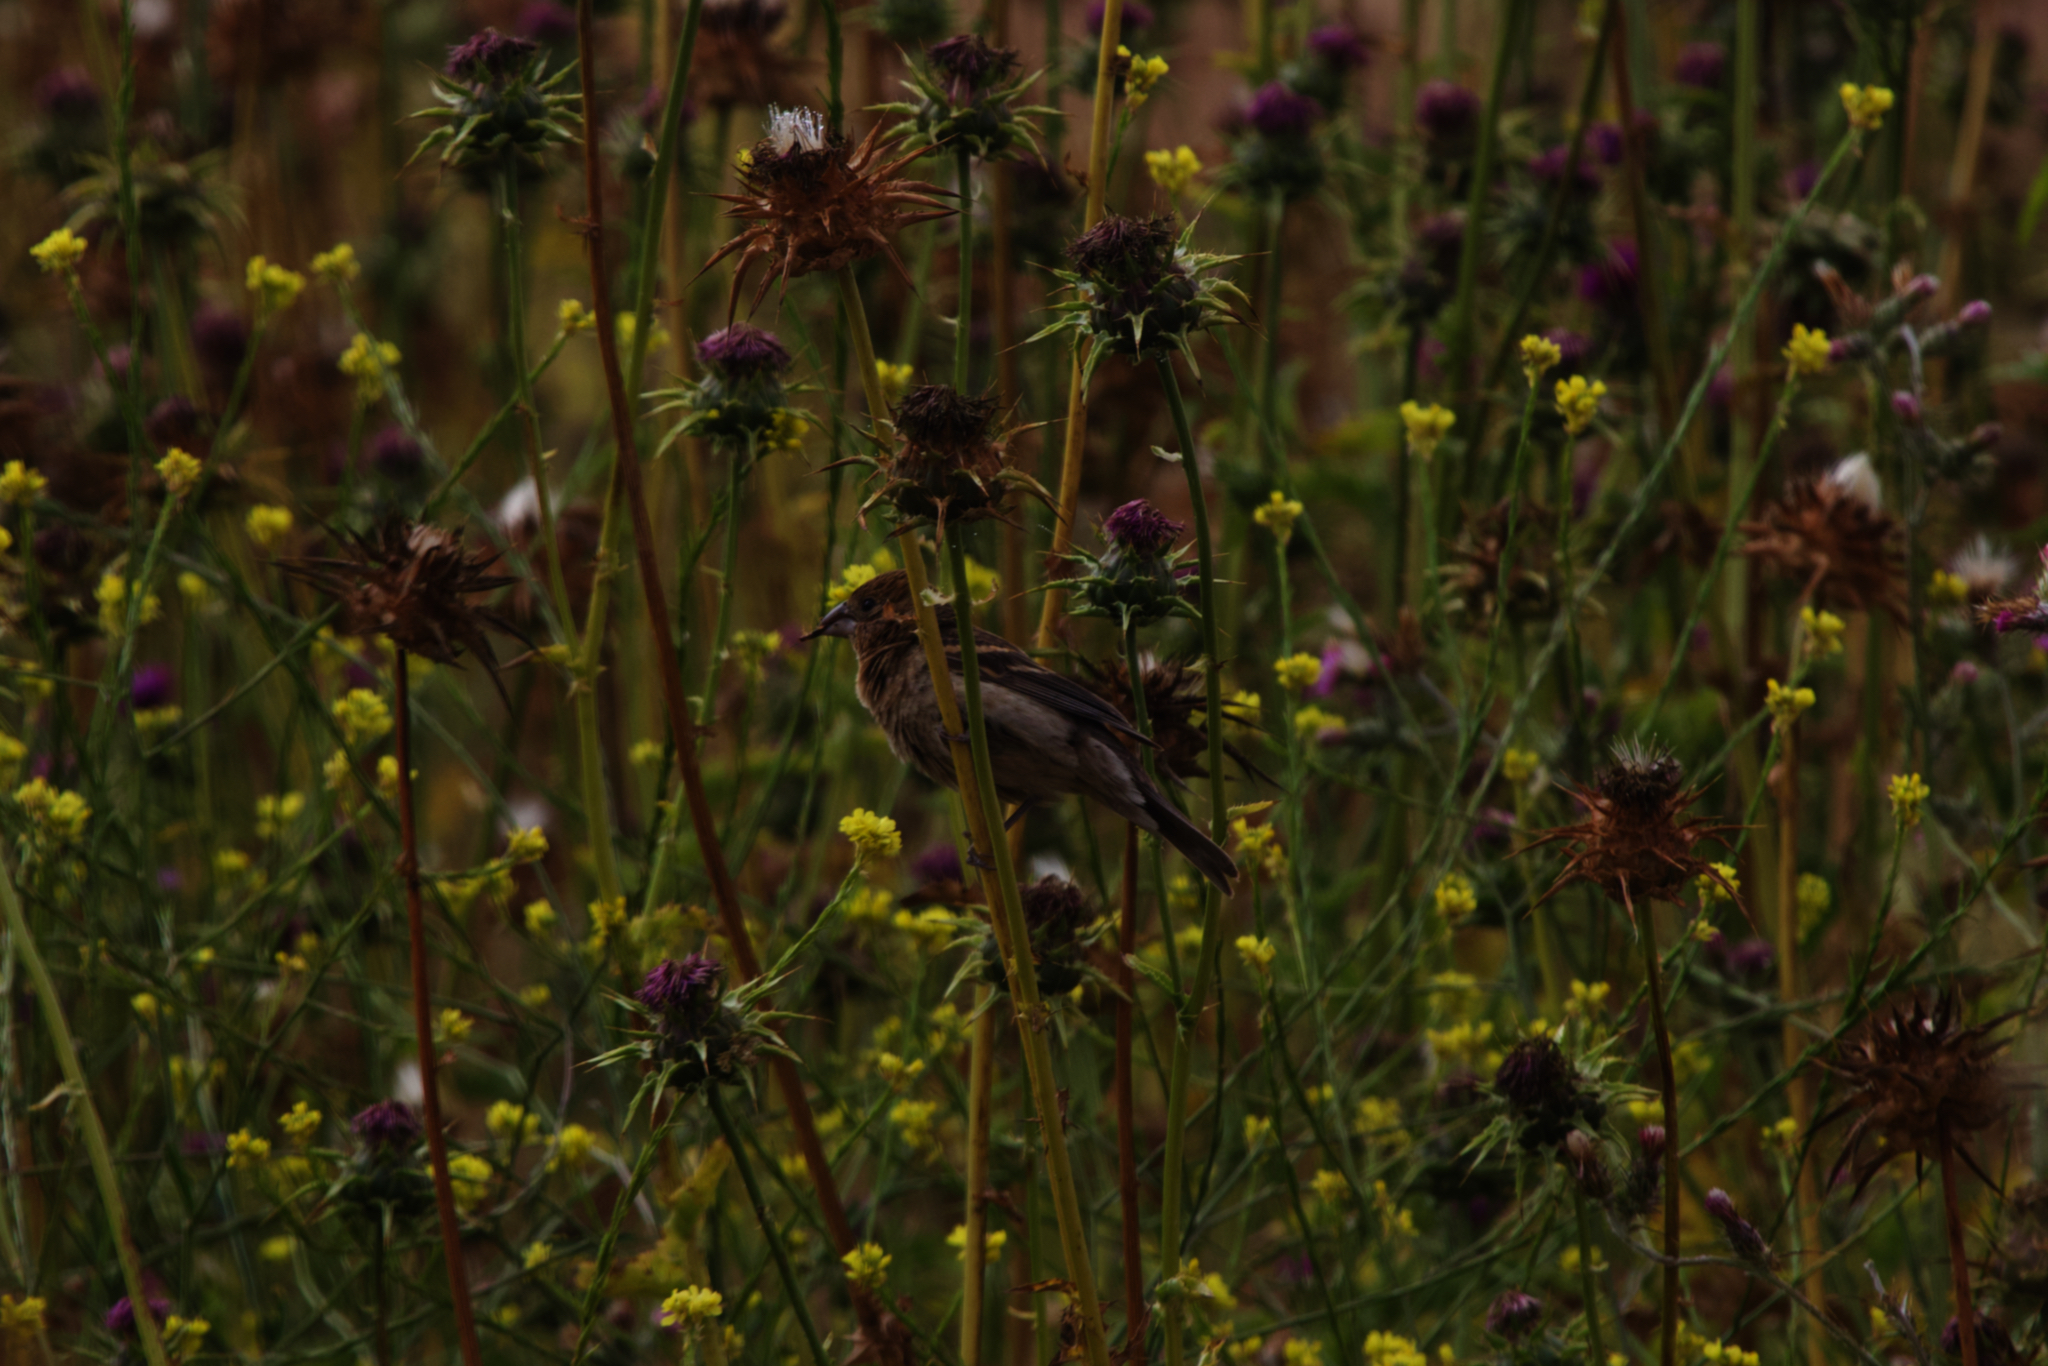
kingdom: Animalia
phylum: Chordata
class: Aves
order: Passeriformes
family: Cardinalidae
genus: Passerina
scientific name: Passerina caerulea
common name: Blue grosbeak
